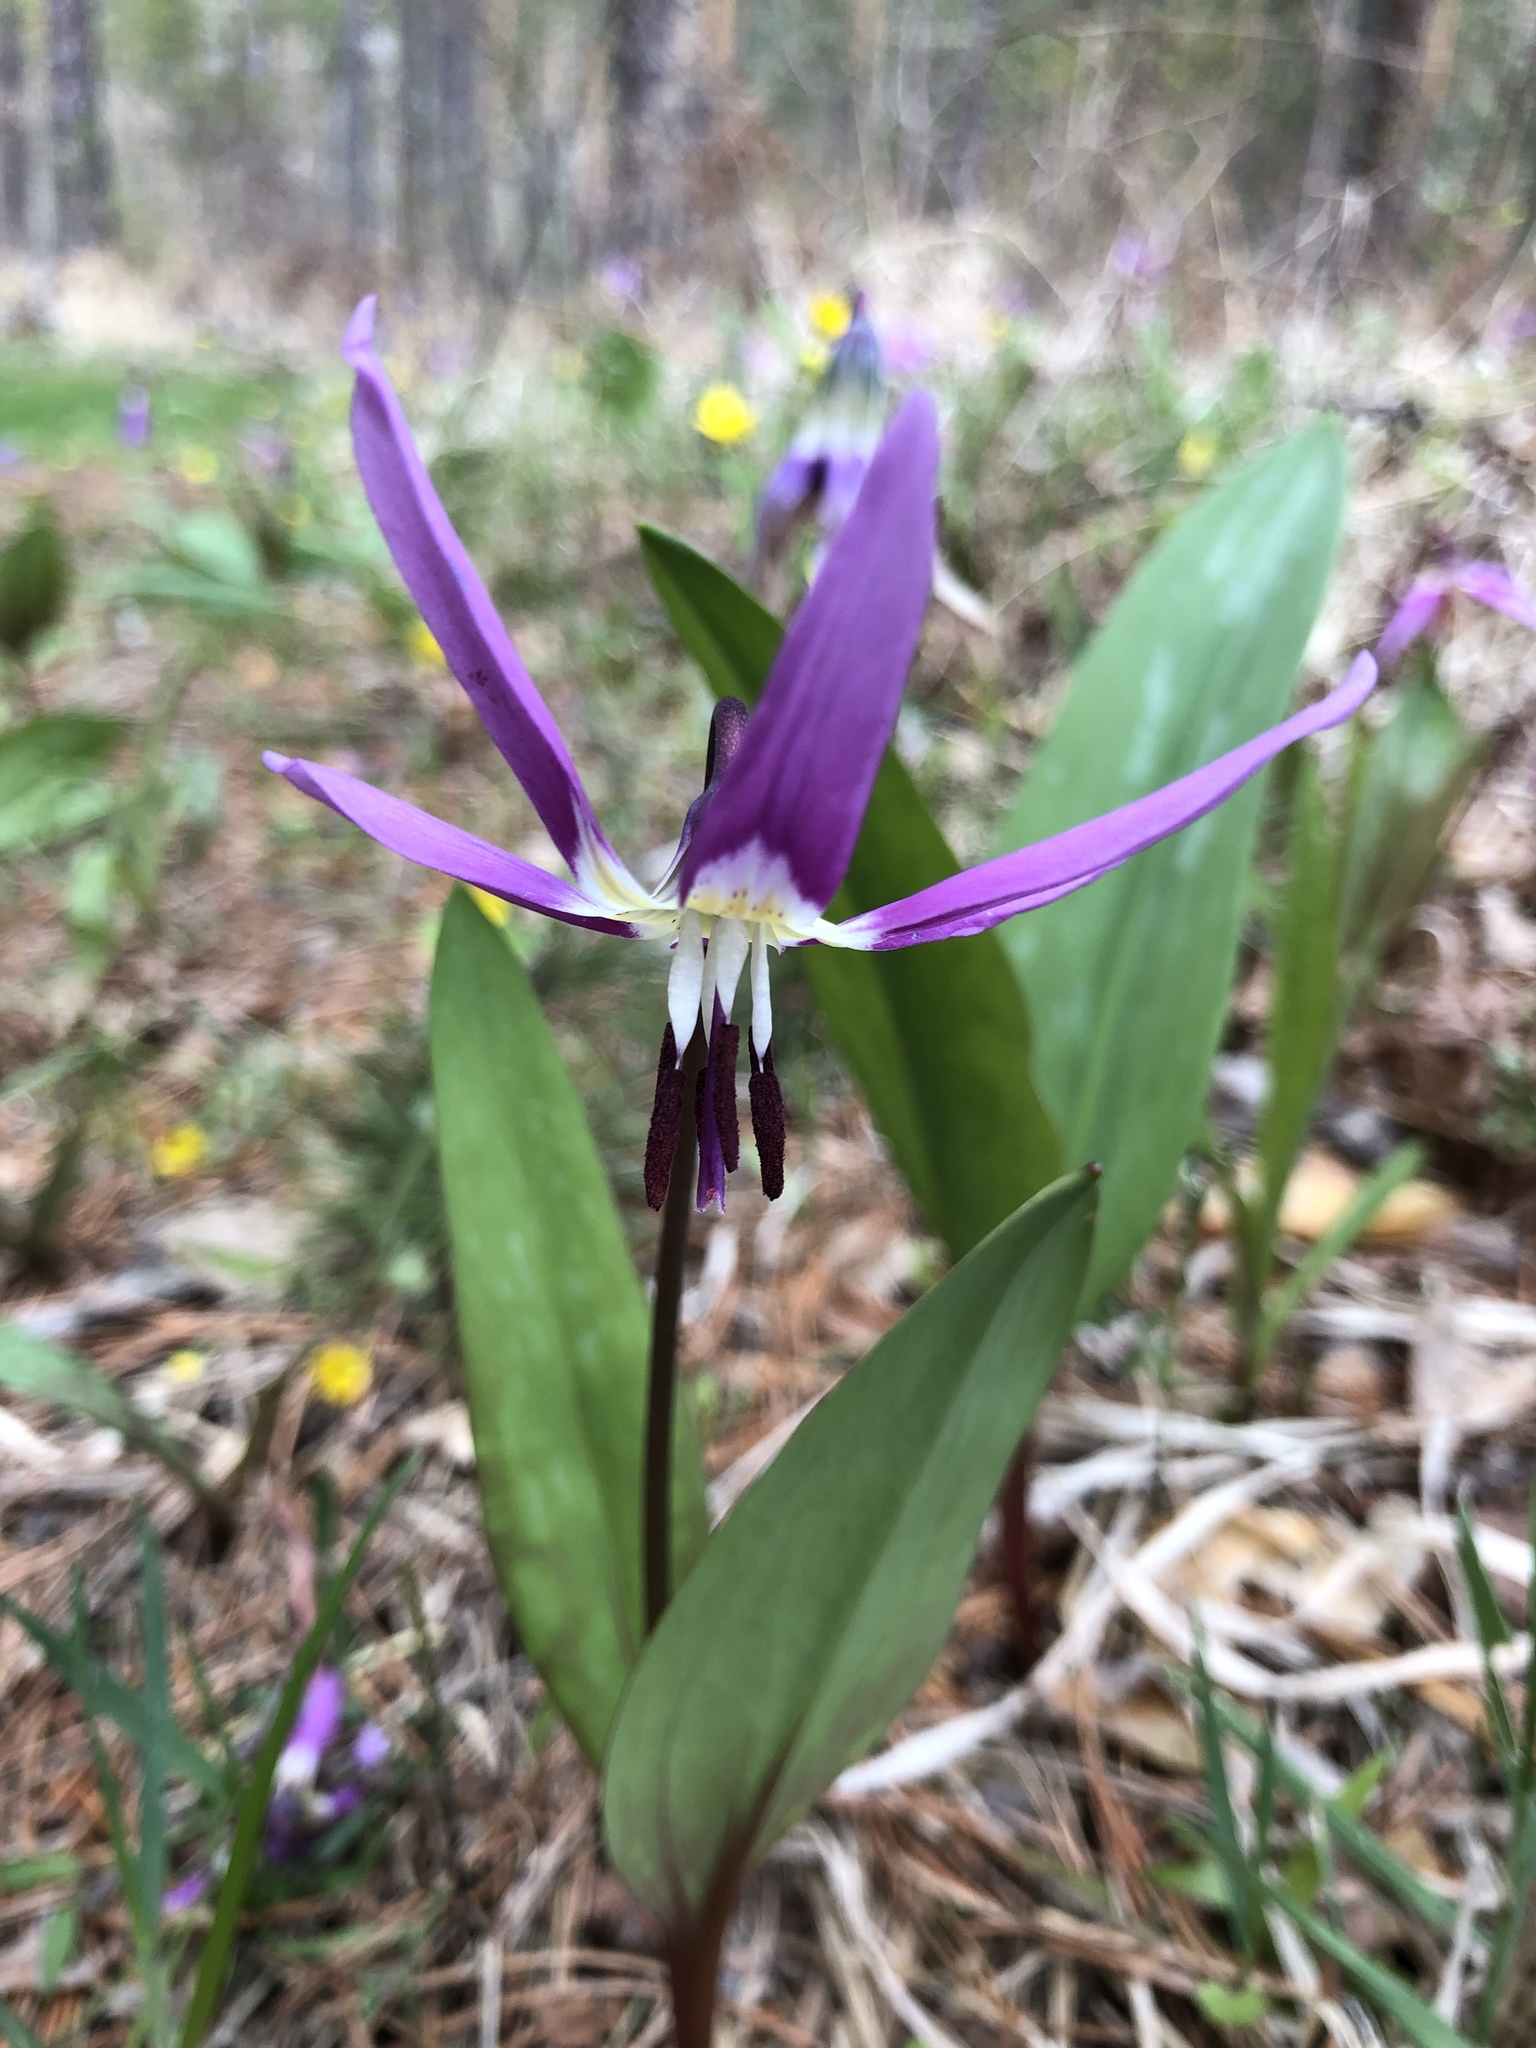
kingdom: Plantae
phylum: Tracheophyta
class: Liliopsida
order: Liliales
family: Liliaceae
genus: Erythronium
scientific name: Erythronium sulevii
